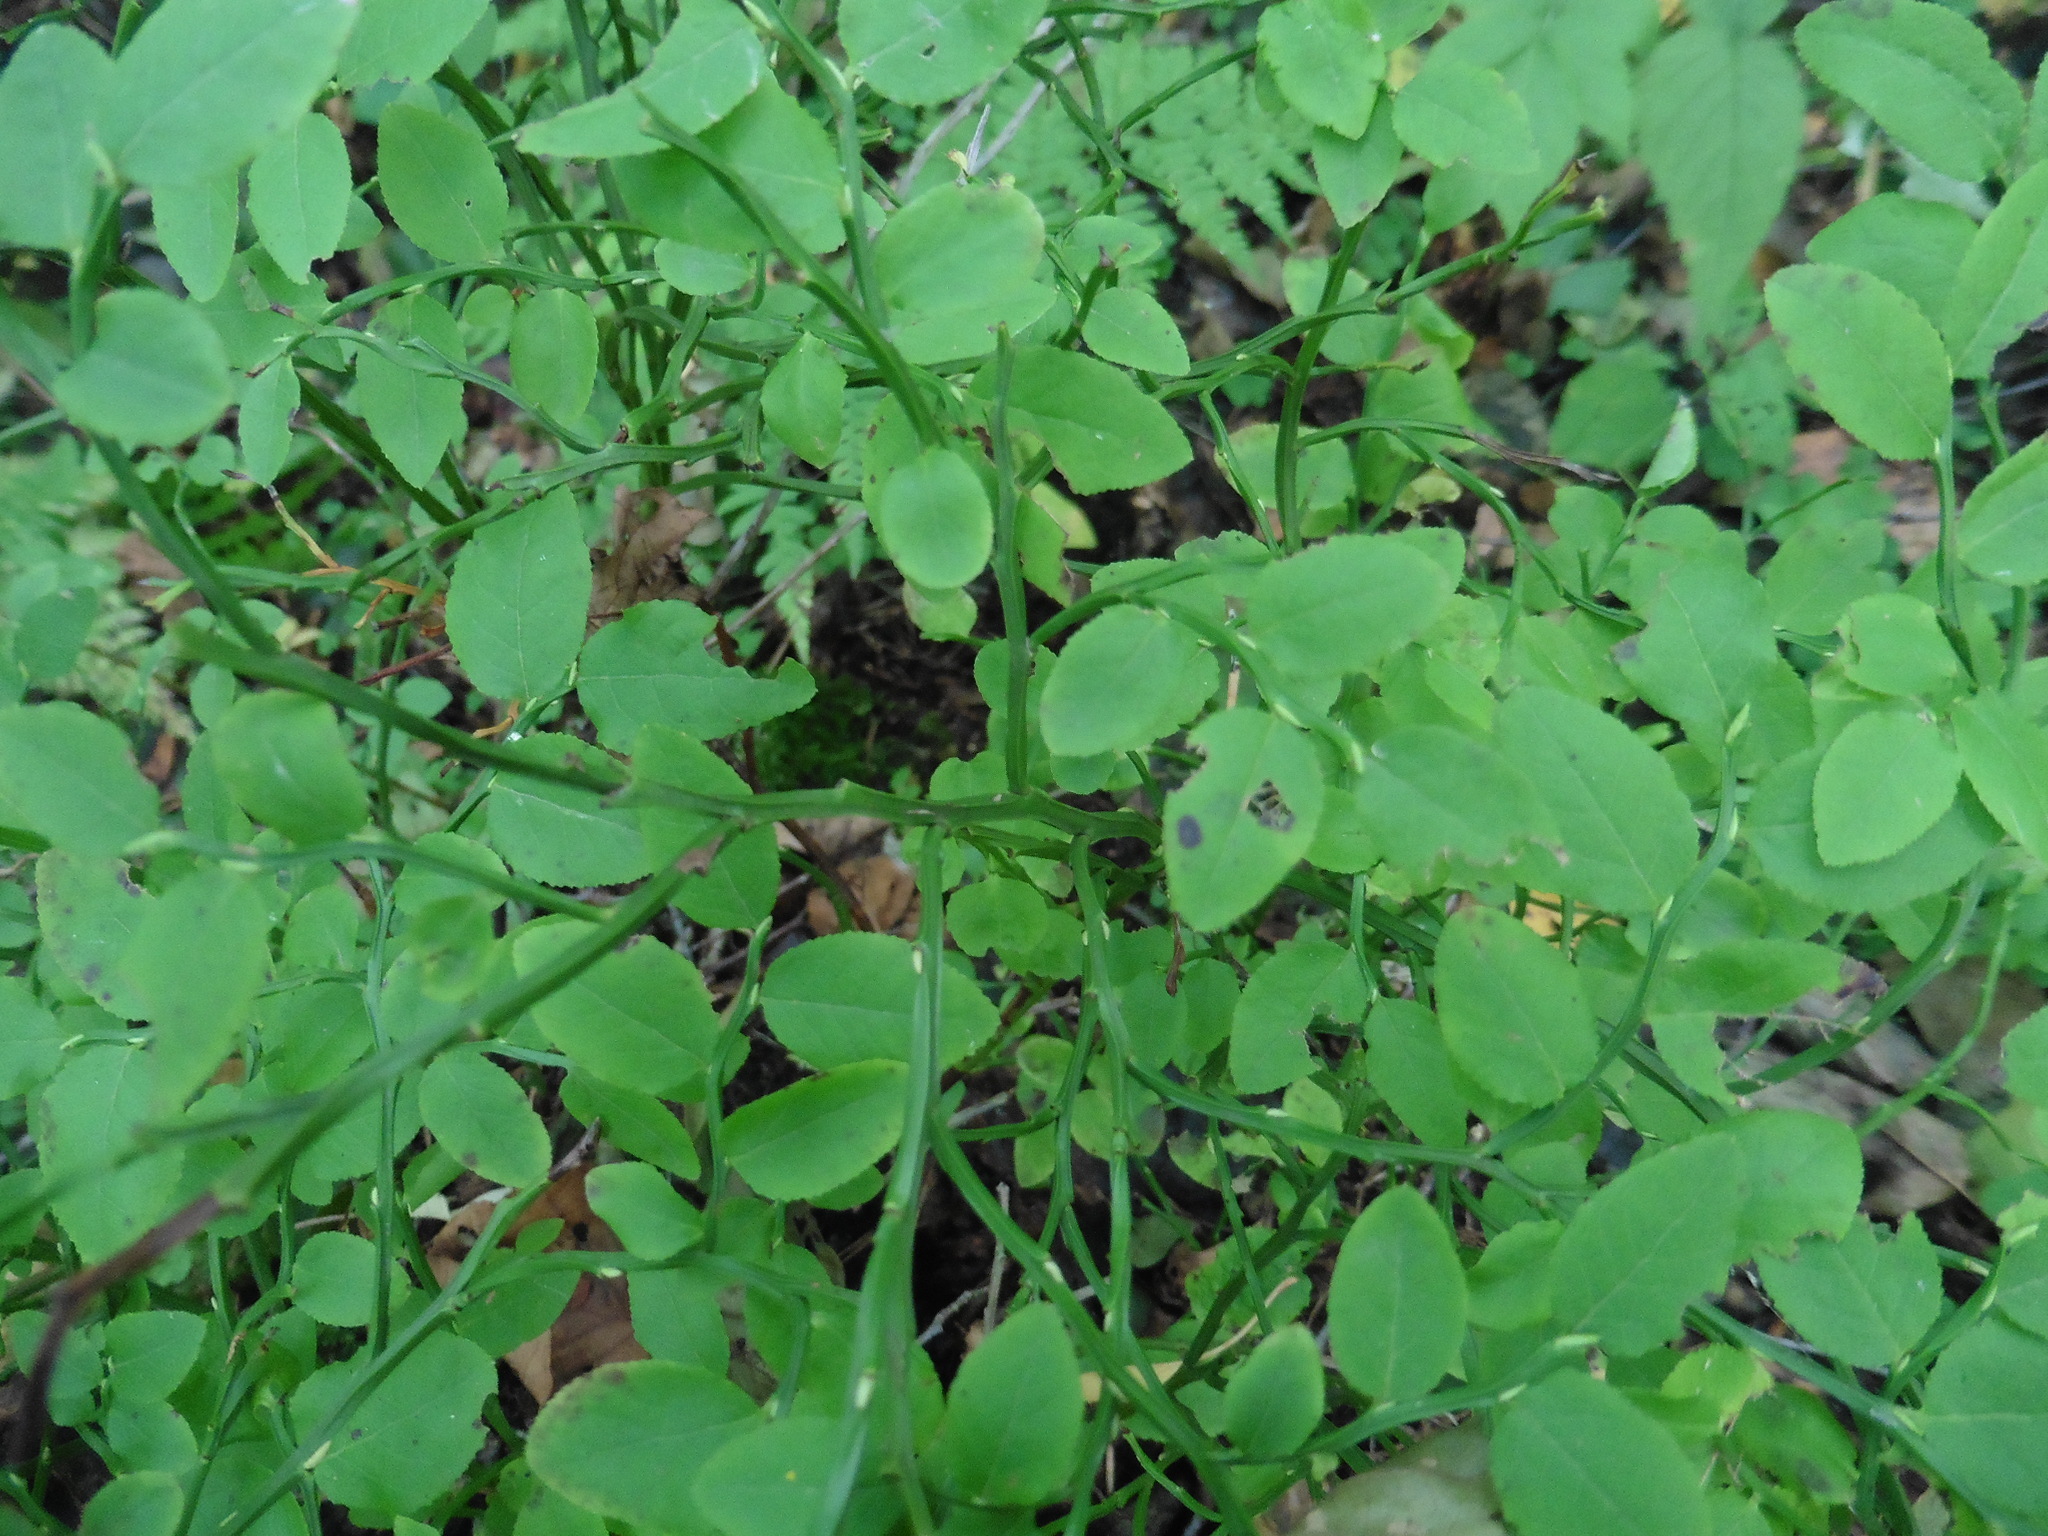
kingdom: Plantae
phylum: Tracheophyta
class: Magnoliopsida
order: Ericales
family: Ericaceae
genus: Vaccinium
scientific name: Vaccinium myrtillus
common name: Bilberry
